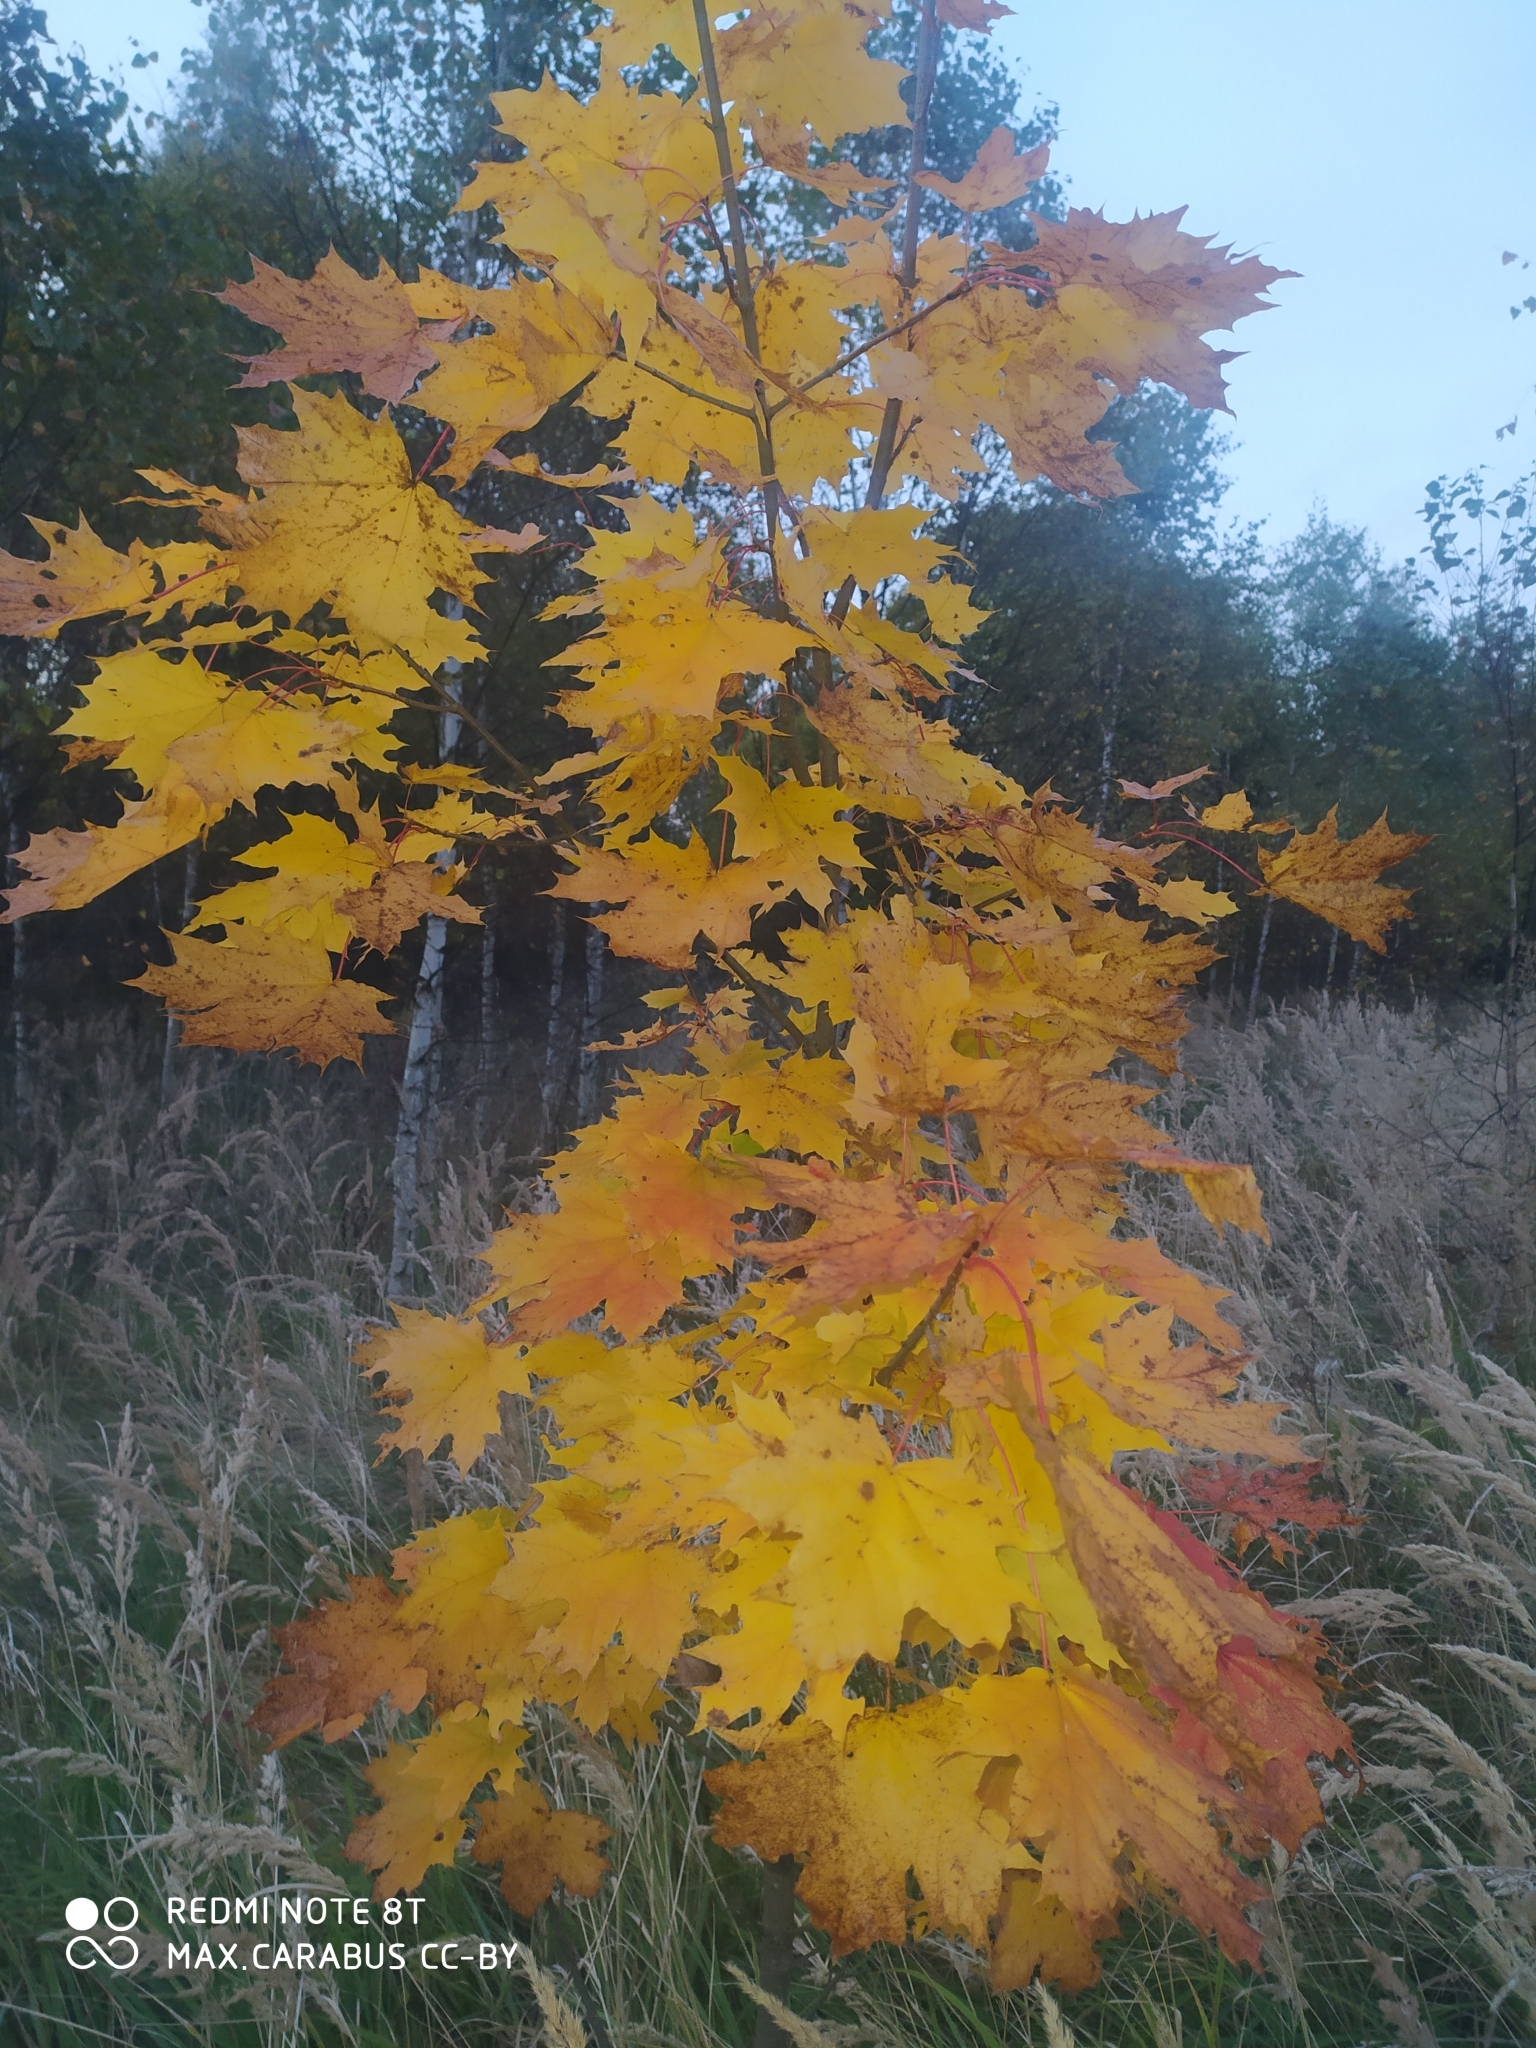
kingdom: Plantae
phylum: Tracheophyta
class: Magnoliopsida
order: Sapindales
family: Sapindaceae
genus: Acer
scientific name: Acer platanoides
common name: Norway maple
